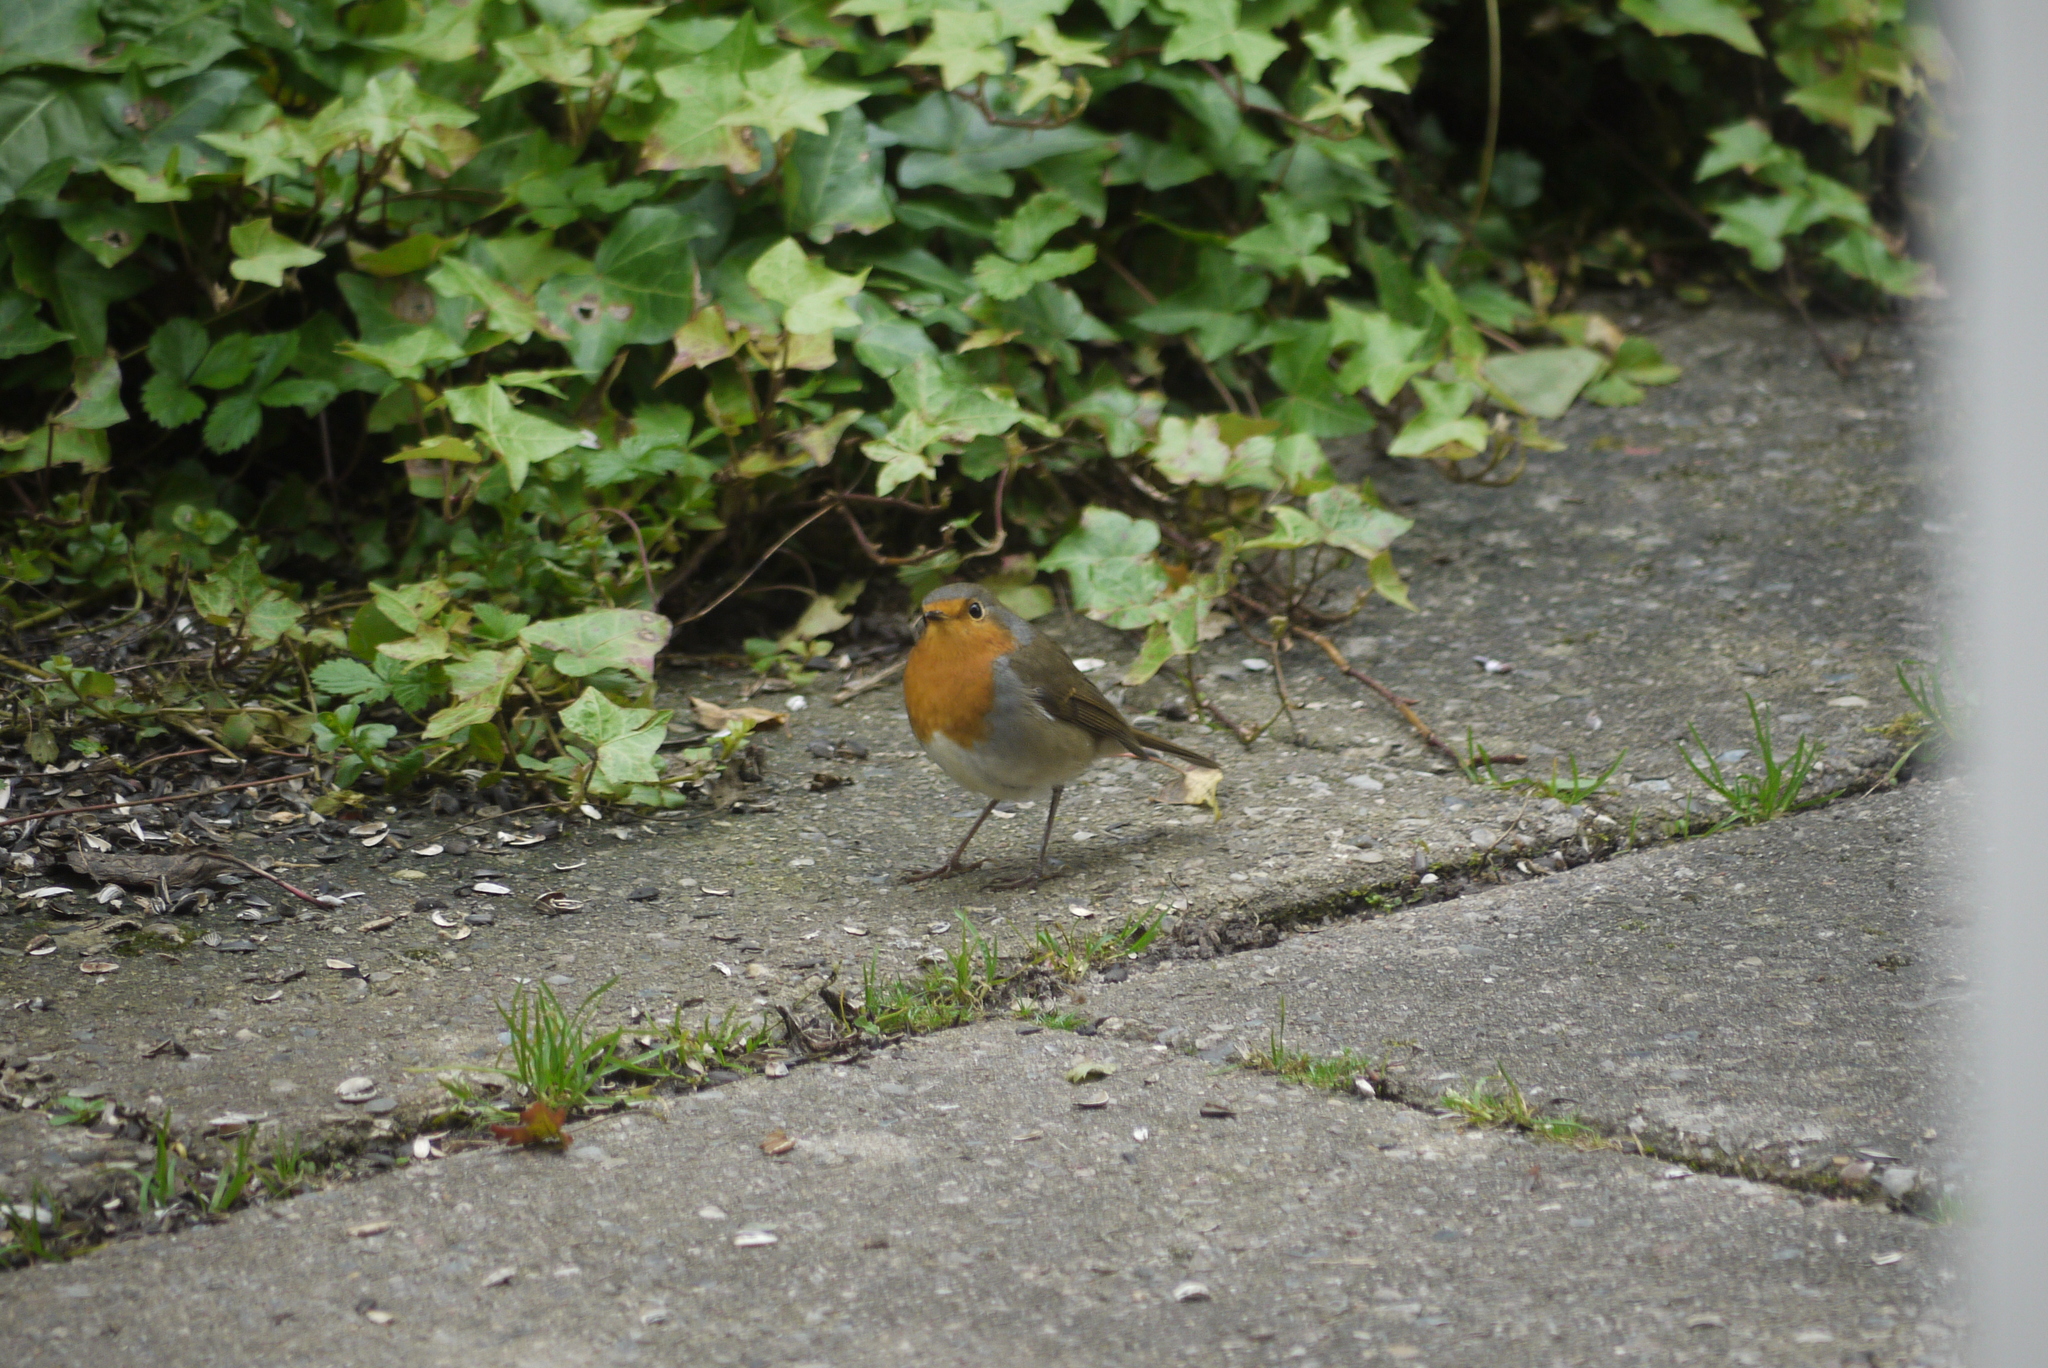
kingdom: Animalia
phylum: Chordata
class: Aves
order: Passeriformes
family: Muscicapidae
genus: Erithacus
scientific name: Erithacus rubecula
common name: European robin
